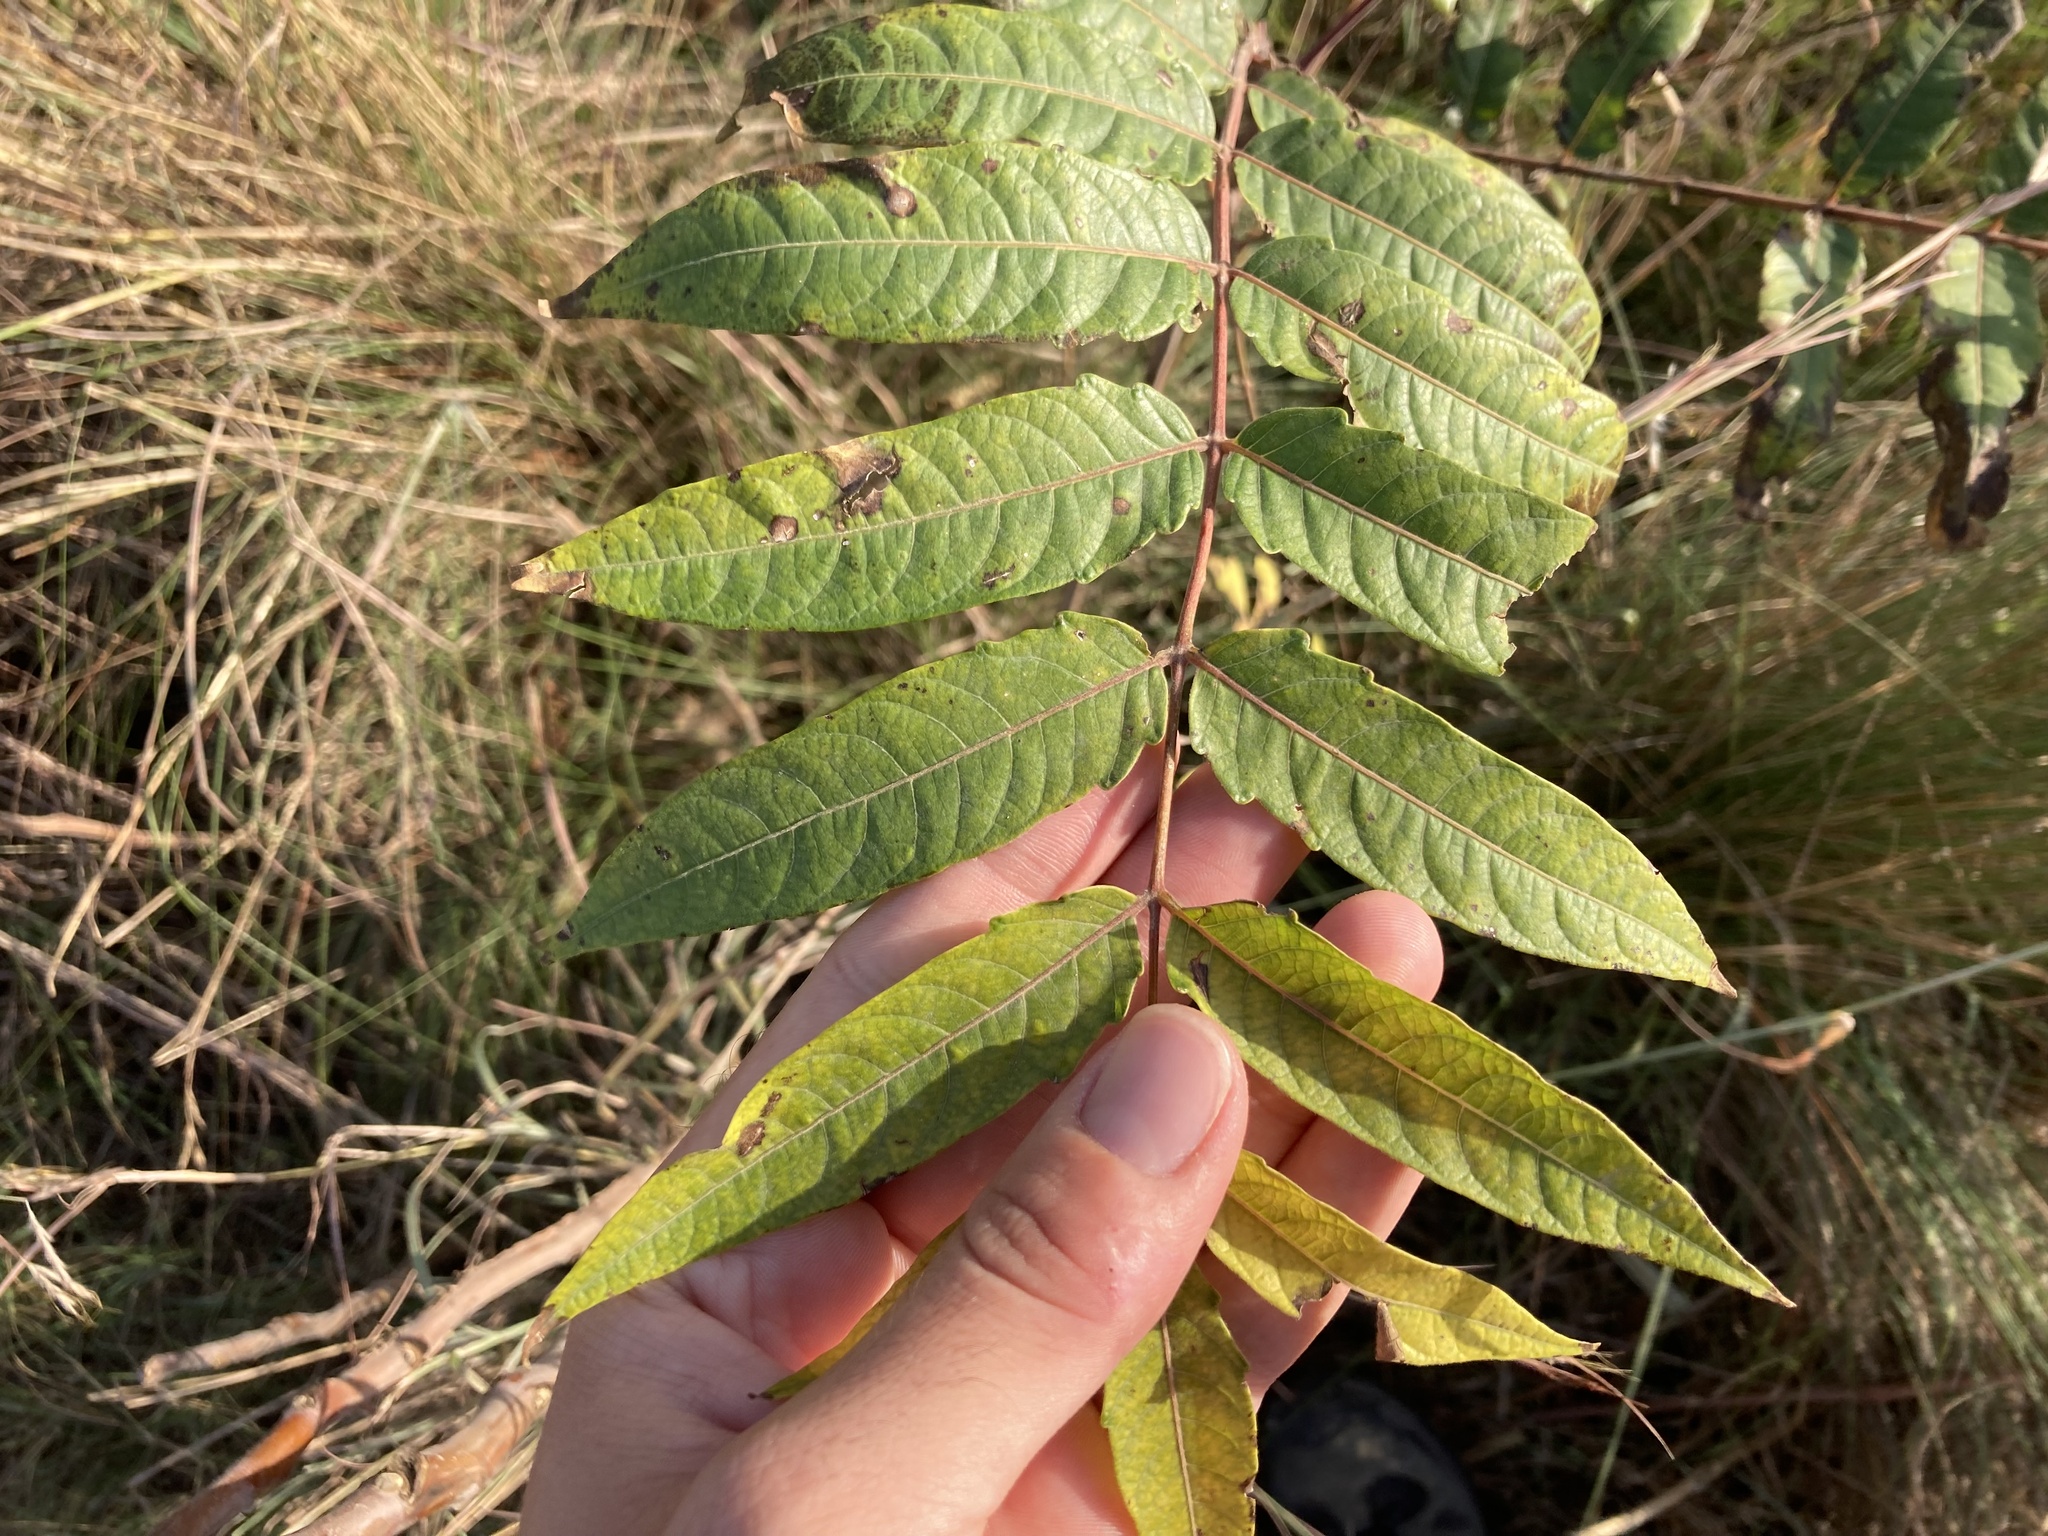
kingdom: Plantae
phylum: Tracheophyta
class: Magnoliopsida
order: Sapindales
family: Simaroubaceae
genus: Ailanthus
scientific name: Ailanthus altissima
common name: Tree-of-heaven
